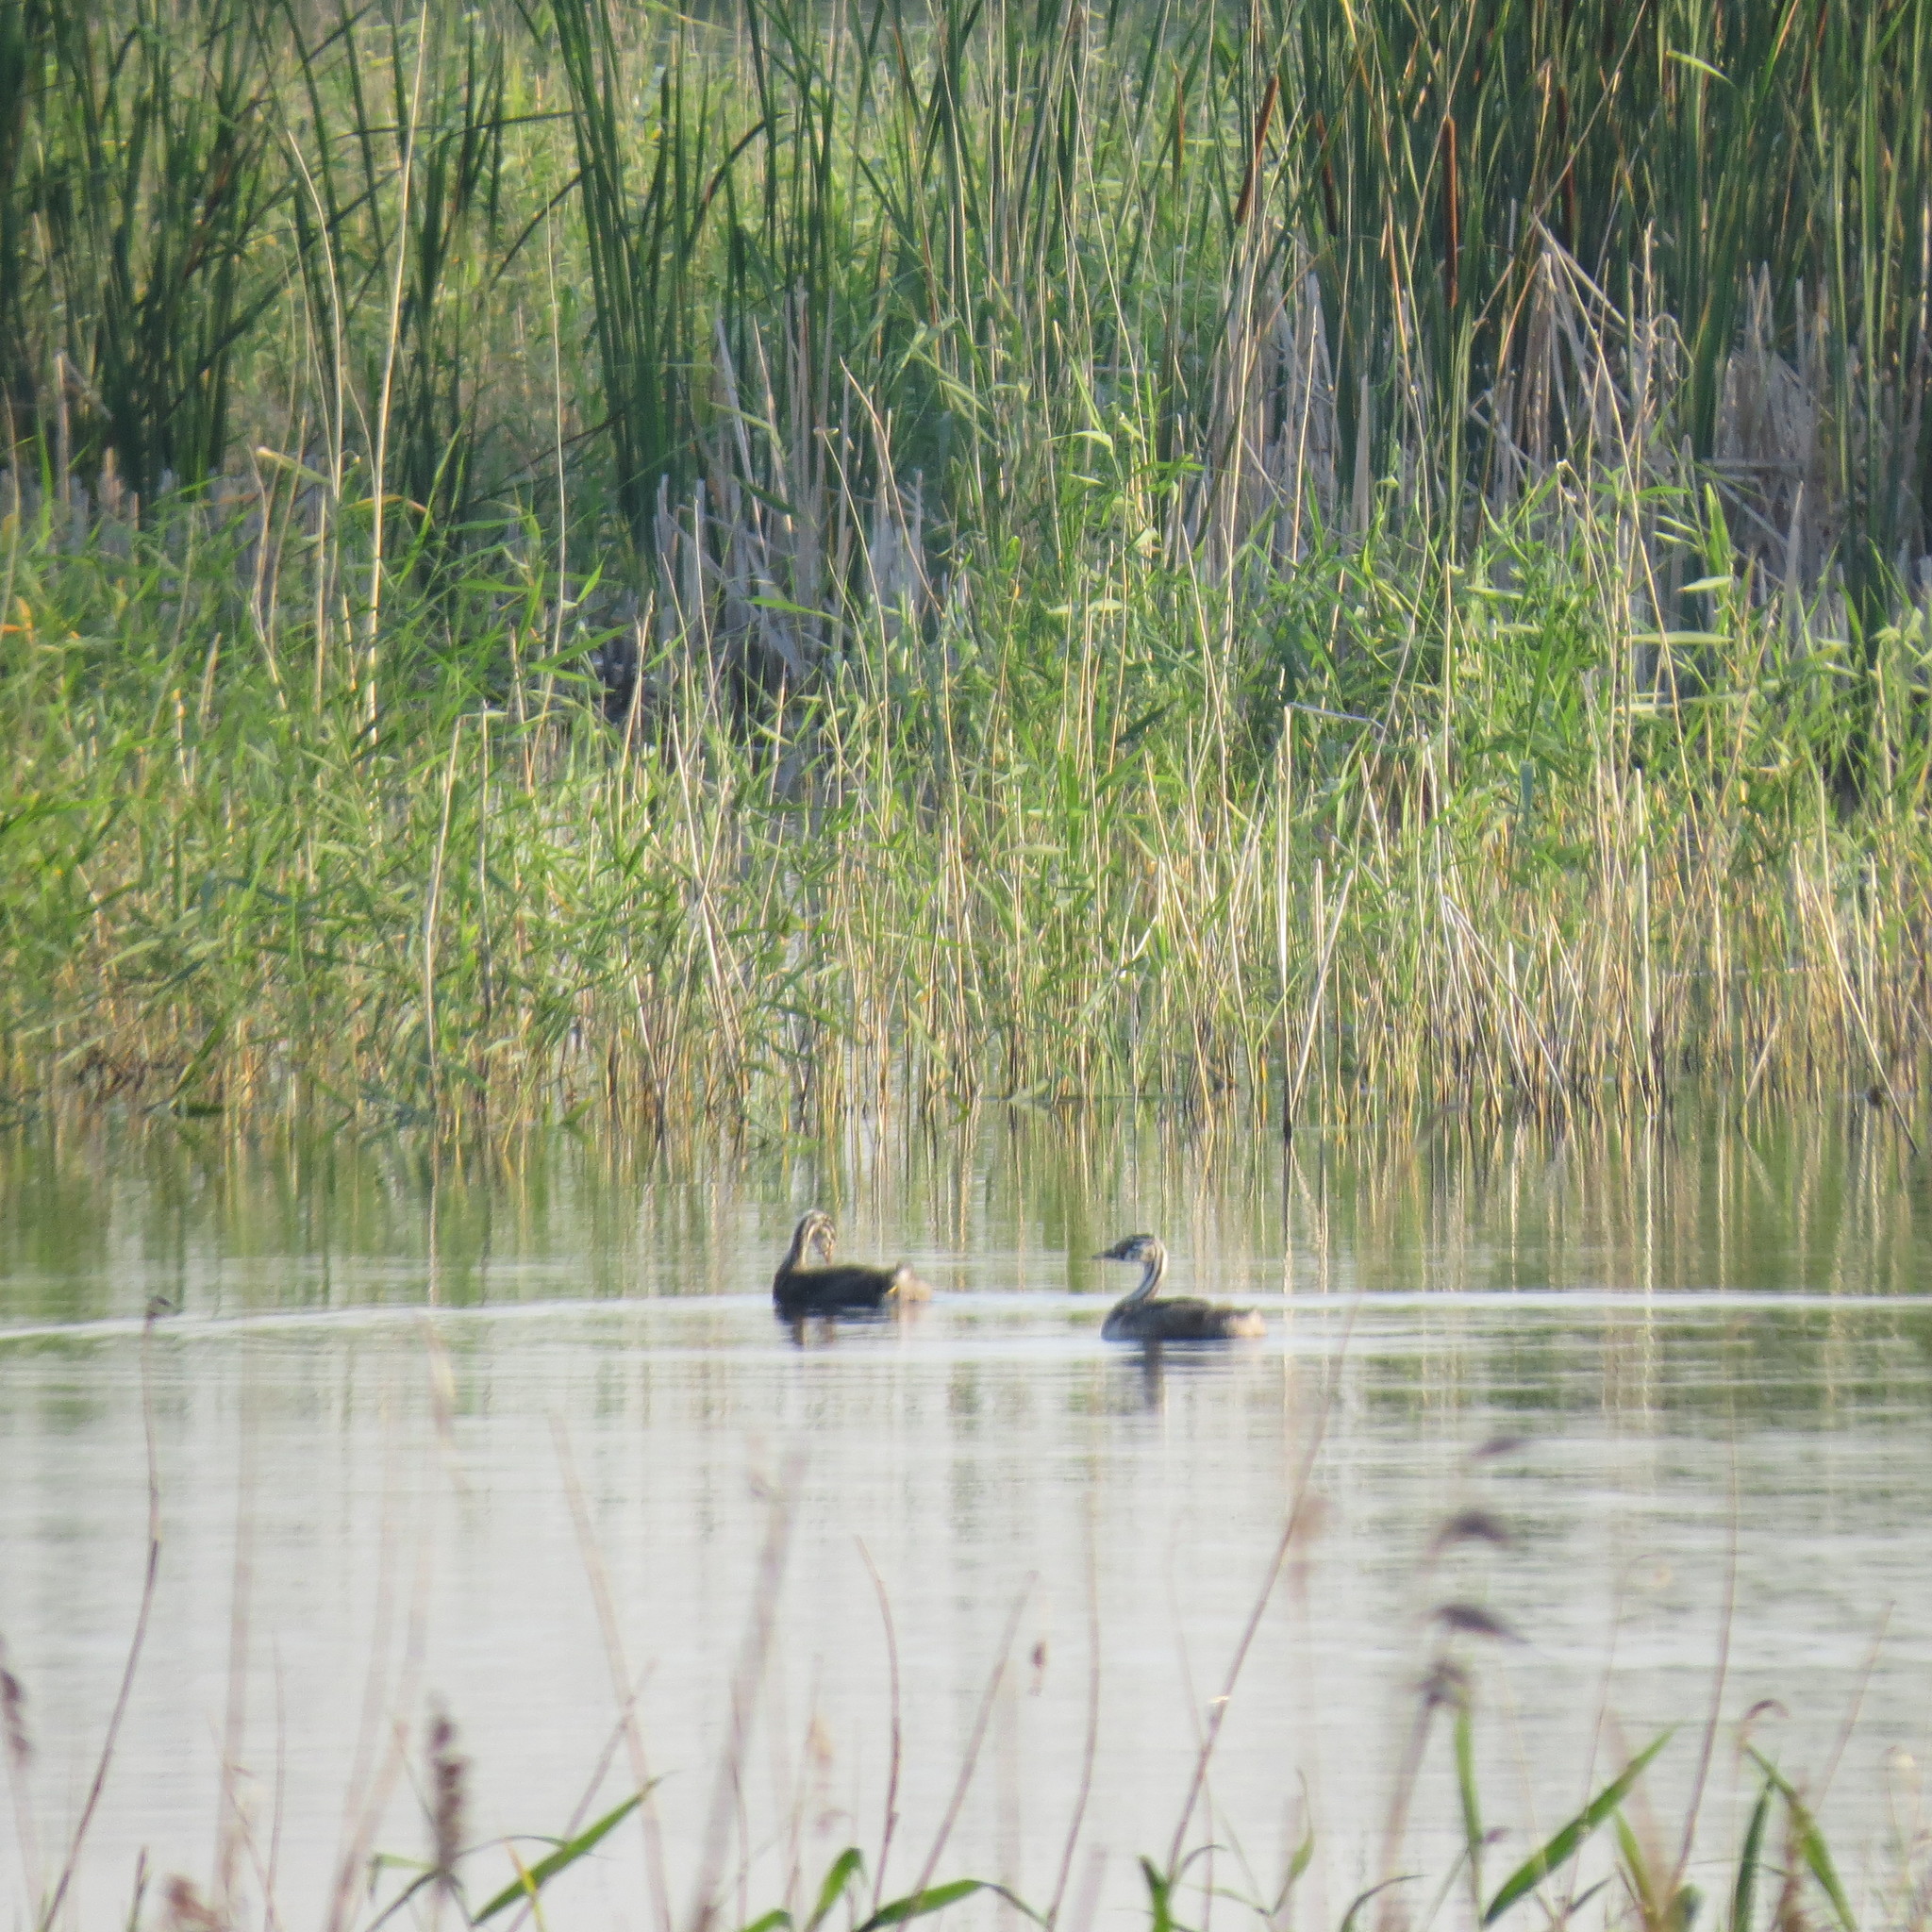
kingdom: Animalia
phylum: Chordata
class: Aves
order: Podicipediformes
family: Podicipedidae
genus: Podiceps
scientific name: Podiceps cristatus
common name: Great crested grebe
